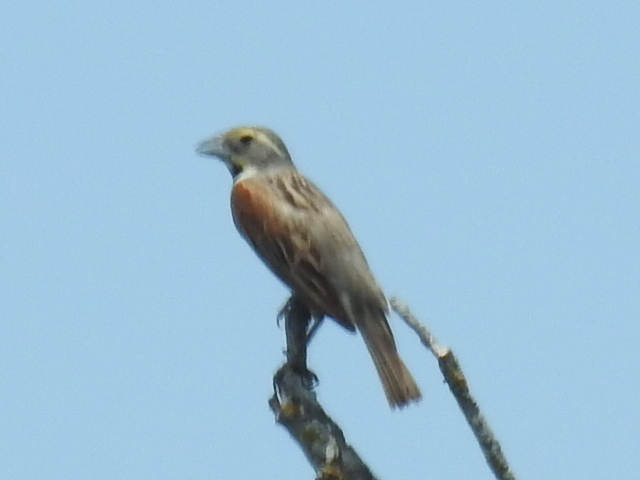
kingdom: Animalia
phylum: Chordata
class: Aves
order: Passeriformes
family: Cardinalidae
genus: Spiza
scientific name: Spiza americana
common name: Dickcissel
